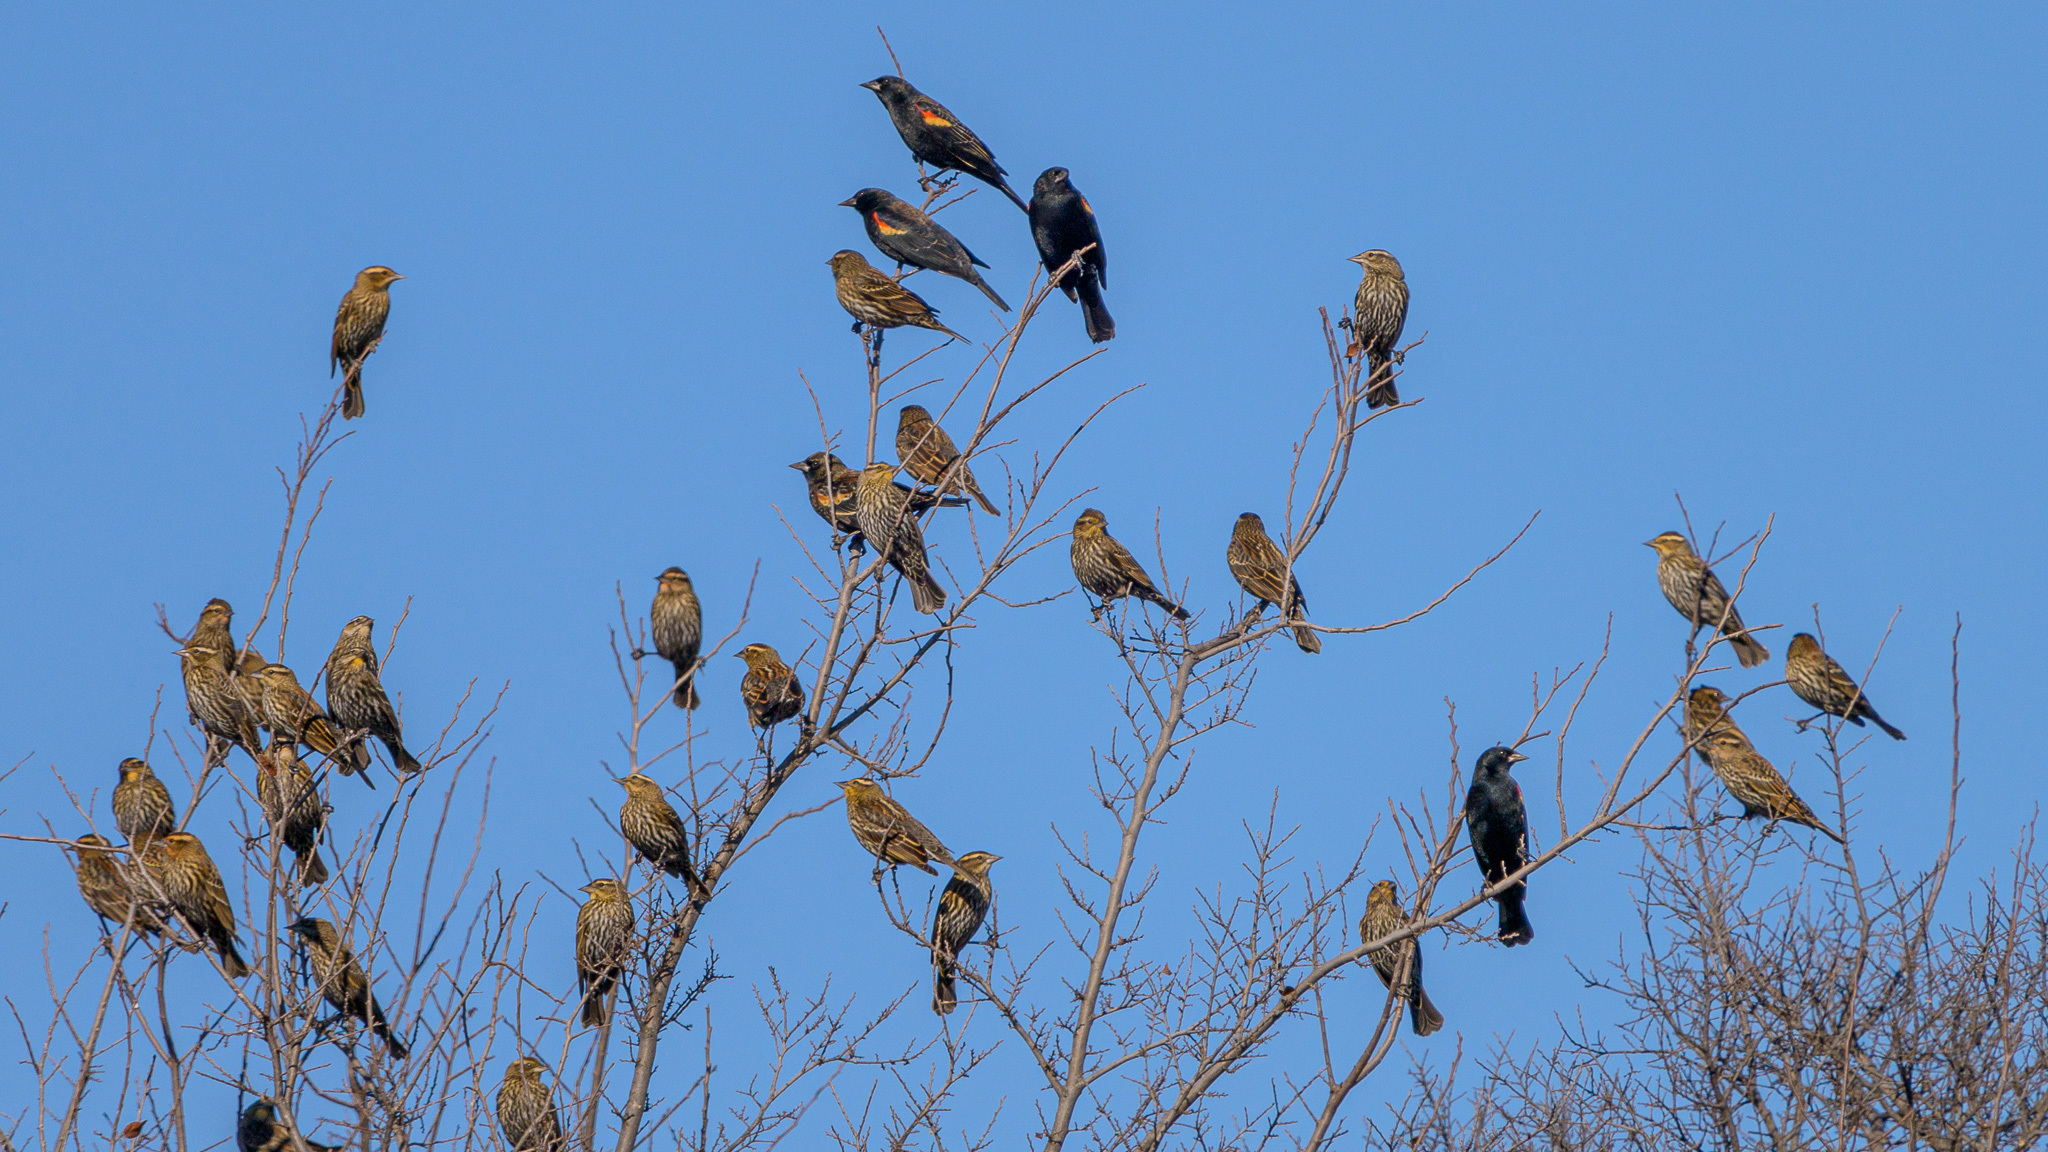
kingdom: Animalia
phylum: Chordata
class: Aves
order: Passeriformes
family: Icteridae
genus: Agelaius
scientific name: Agelaius phoeniceus
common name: Red-winged blackbird
